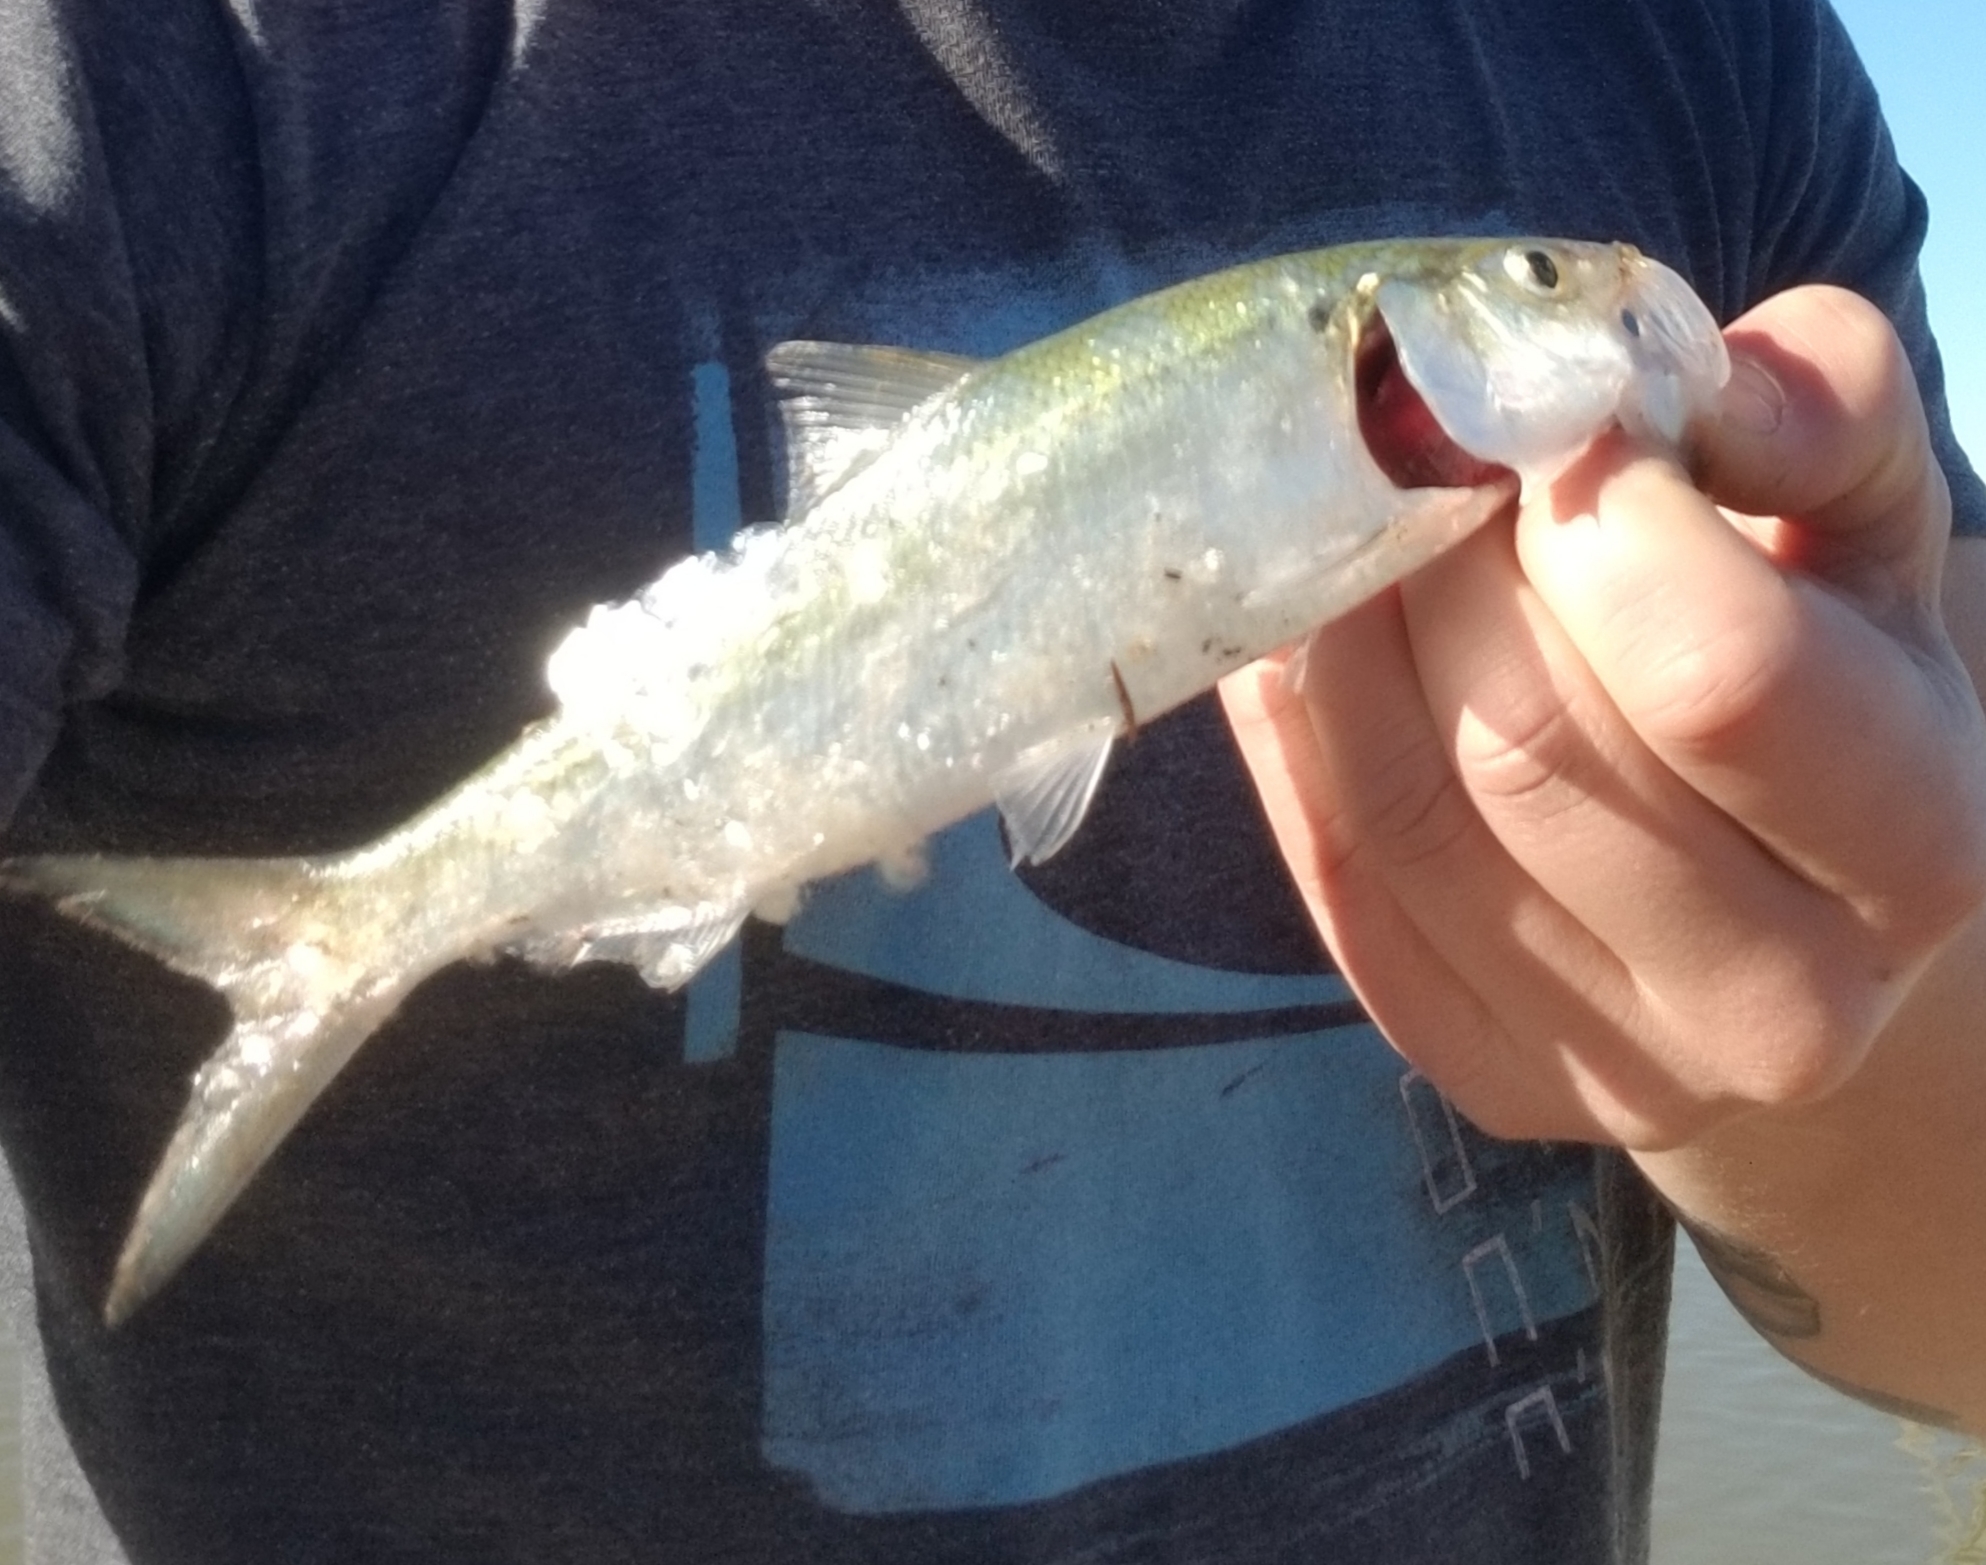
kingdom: Animalia
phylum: Chordata
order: Clupeiformes
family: Clupeidae
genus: Alosa
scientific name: Alosa chrysochloris
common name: Skipjack shad
